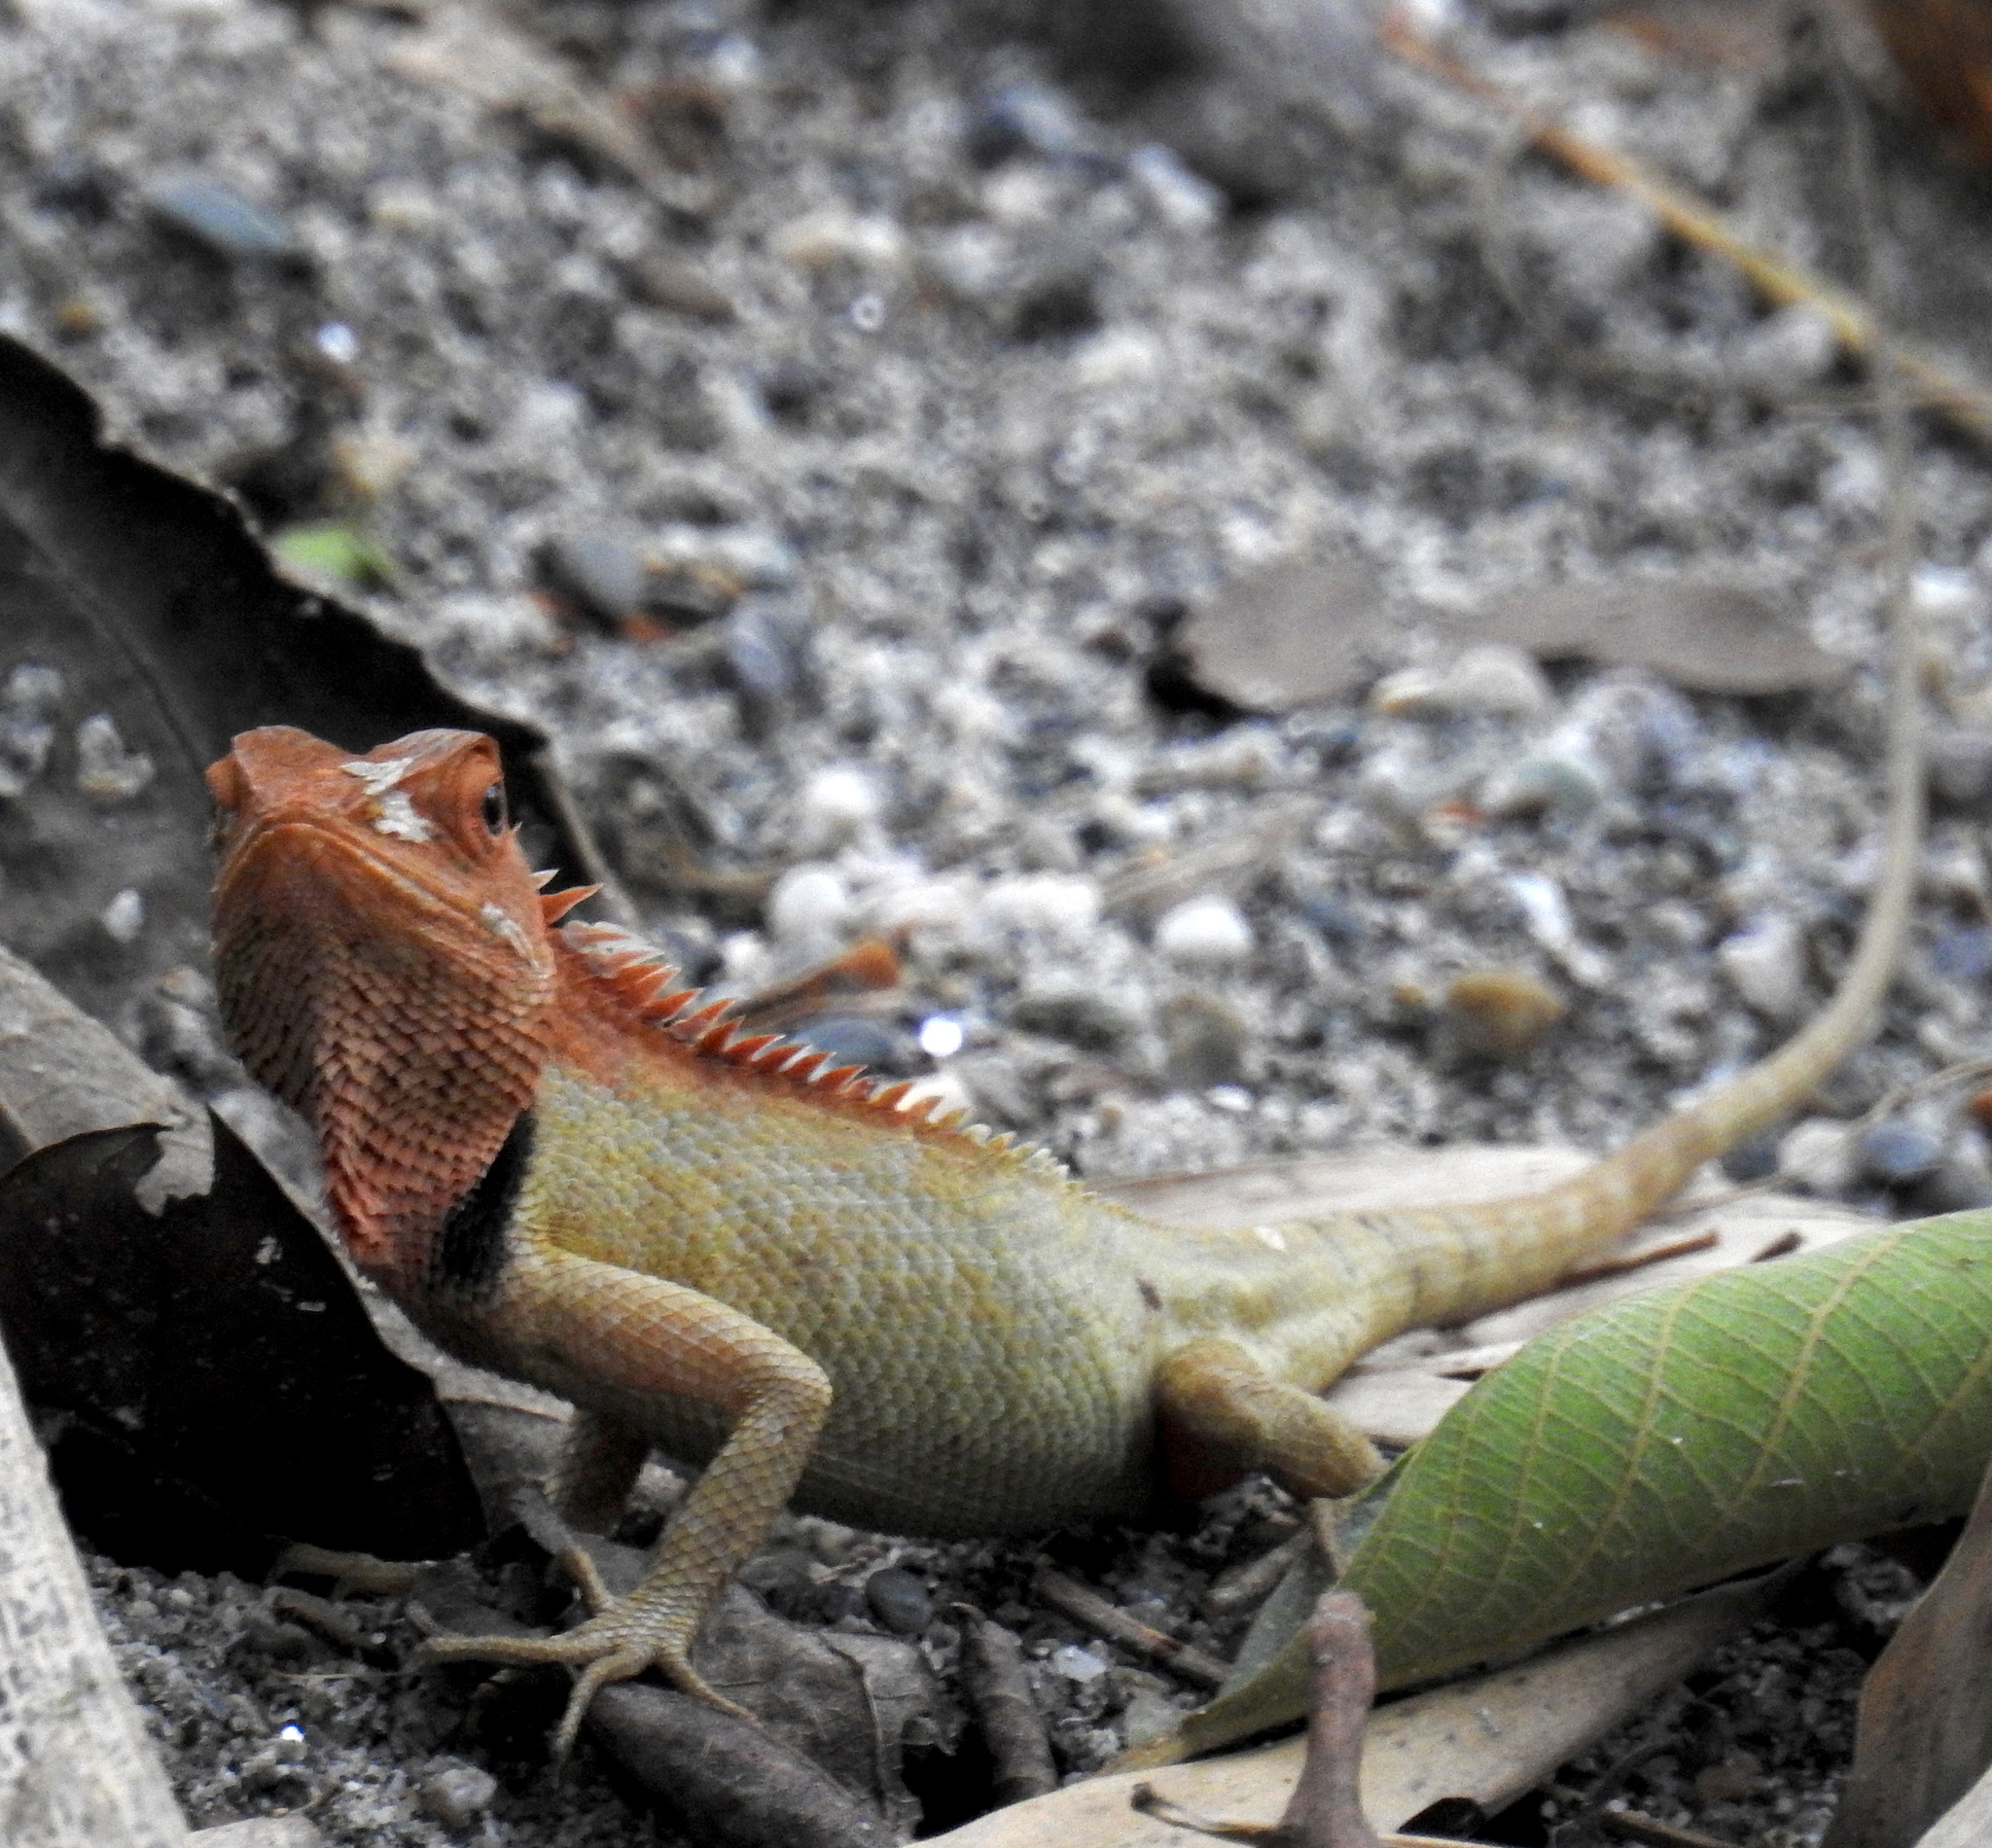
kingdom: Animalia
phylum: Chordata
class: Squamata
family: Agamidae
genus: Calotes
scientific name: Calotes versicolor
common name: Oriental garden lizard
